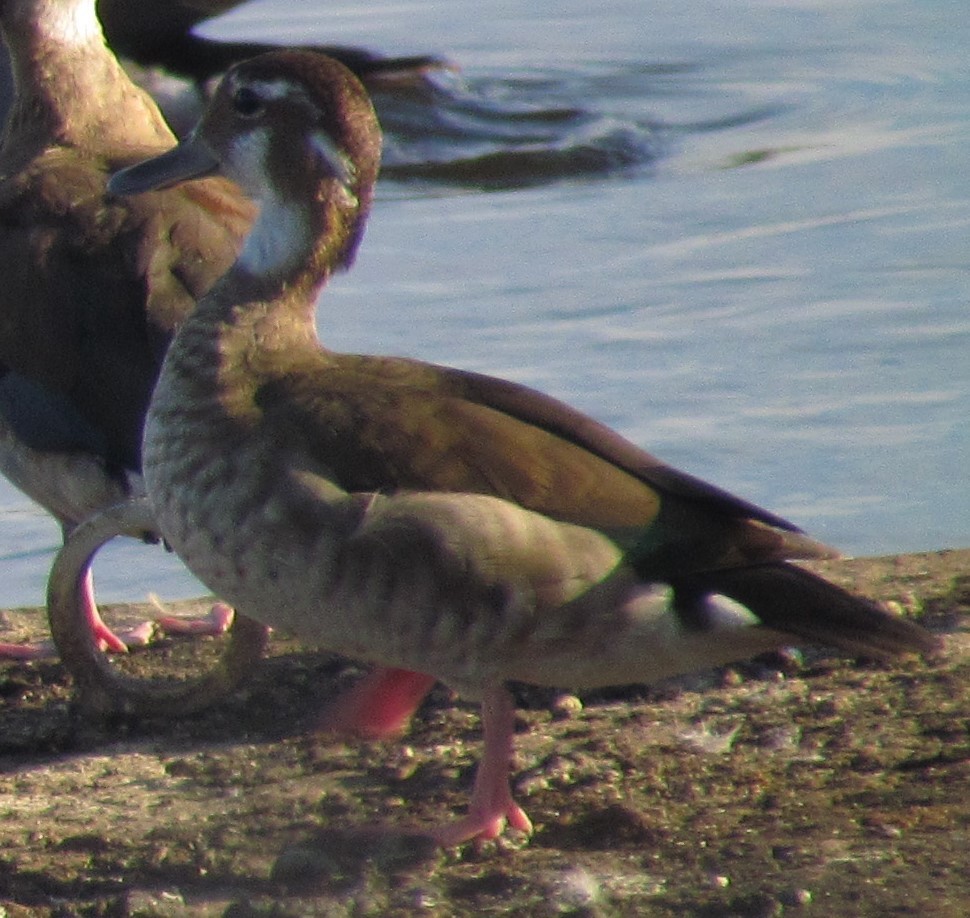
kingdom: Animalia
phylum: Chordata
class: Aves
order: Anseriformes
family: Anatidae
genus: Callonetta
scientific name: Callonetta leucophrys
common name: Ringed teal
